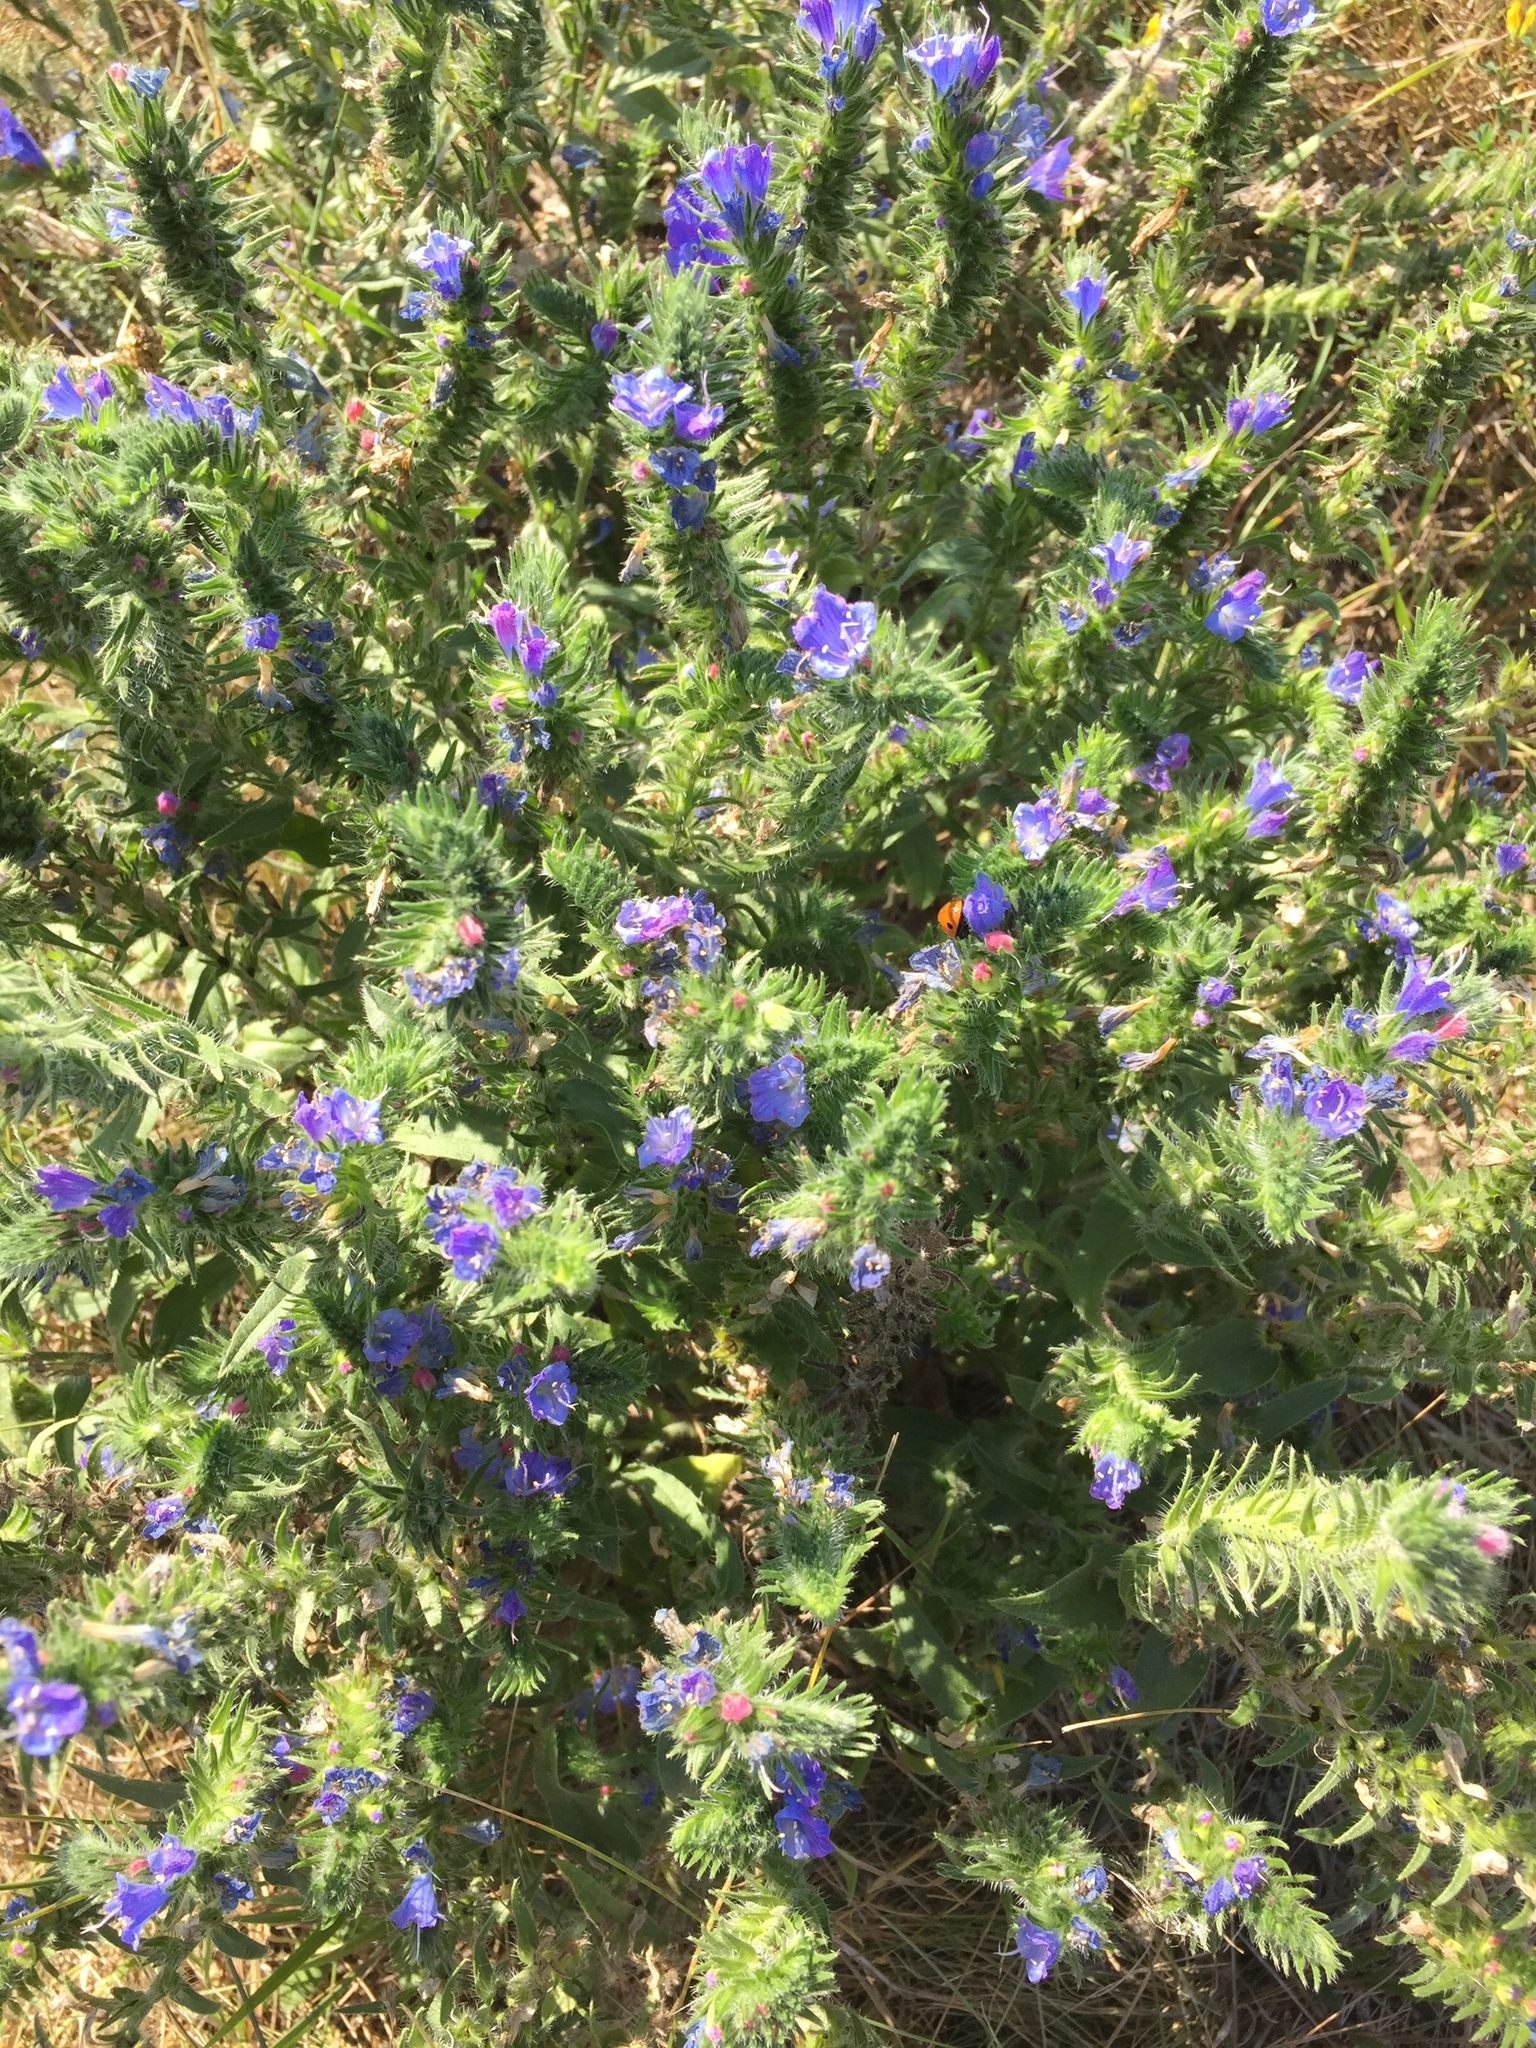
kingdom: Plantae
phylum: Tracheophyta
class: Magnoliopsida
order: Boraginales
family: Boraginaceae
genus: Echium
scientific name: Echium vulgare
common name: Common viper's bugloss
